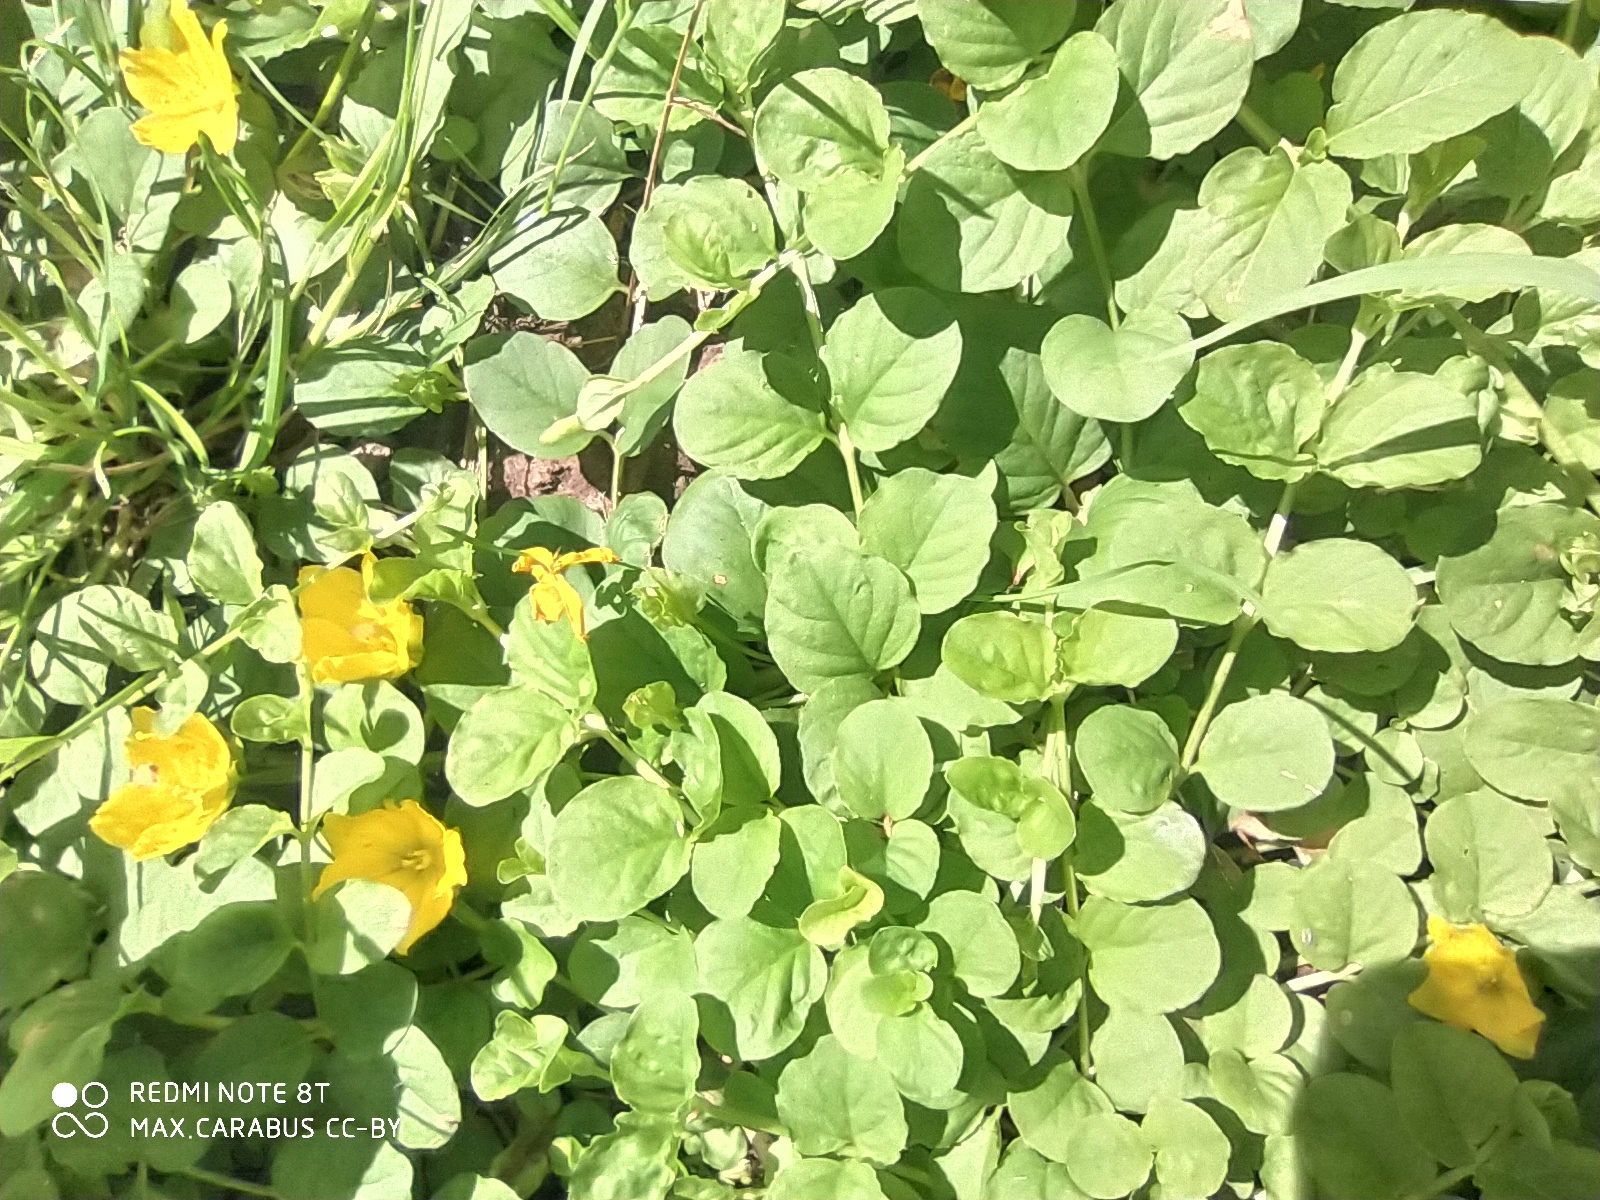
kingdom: Plantae
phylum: Tracheophyta
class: Magnoliopsida
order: Ericales
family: Primulaceae
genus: Lysimachia
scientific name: Lysimachia nummularia
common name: Moneywort
